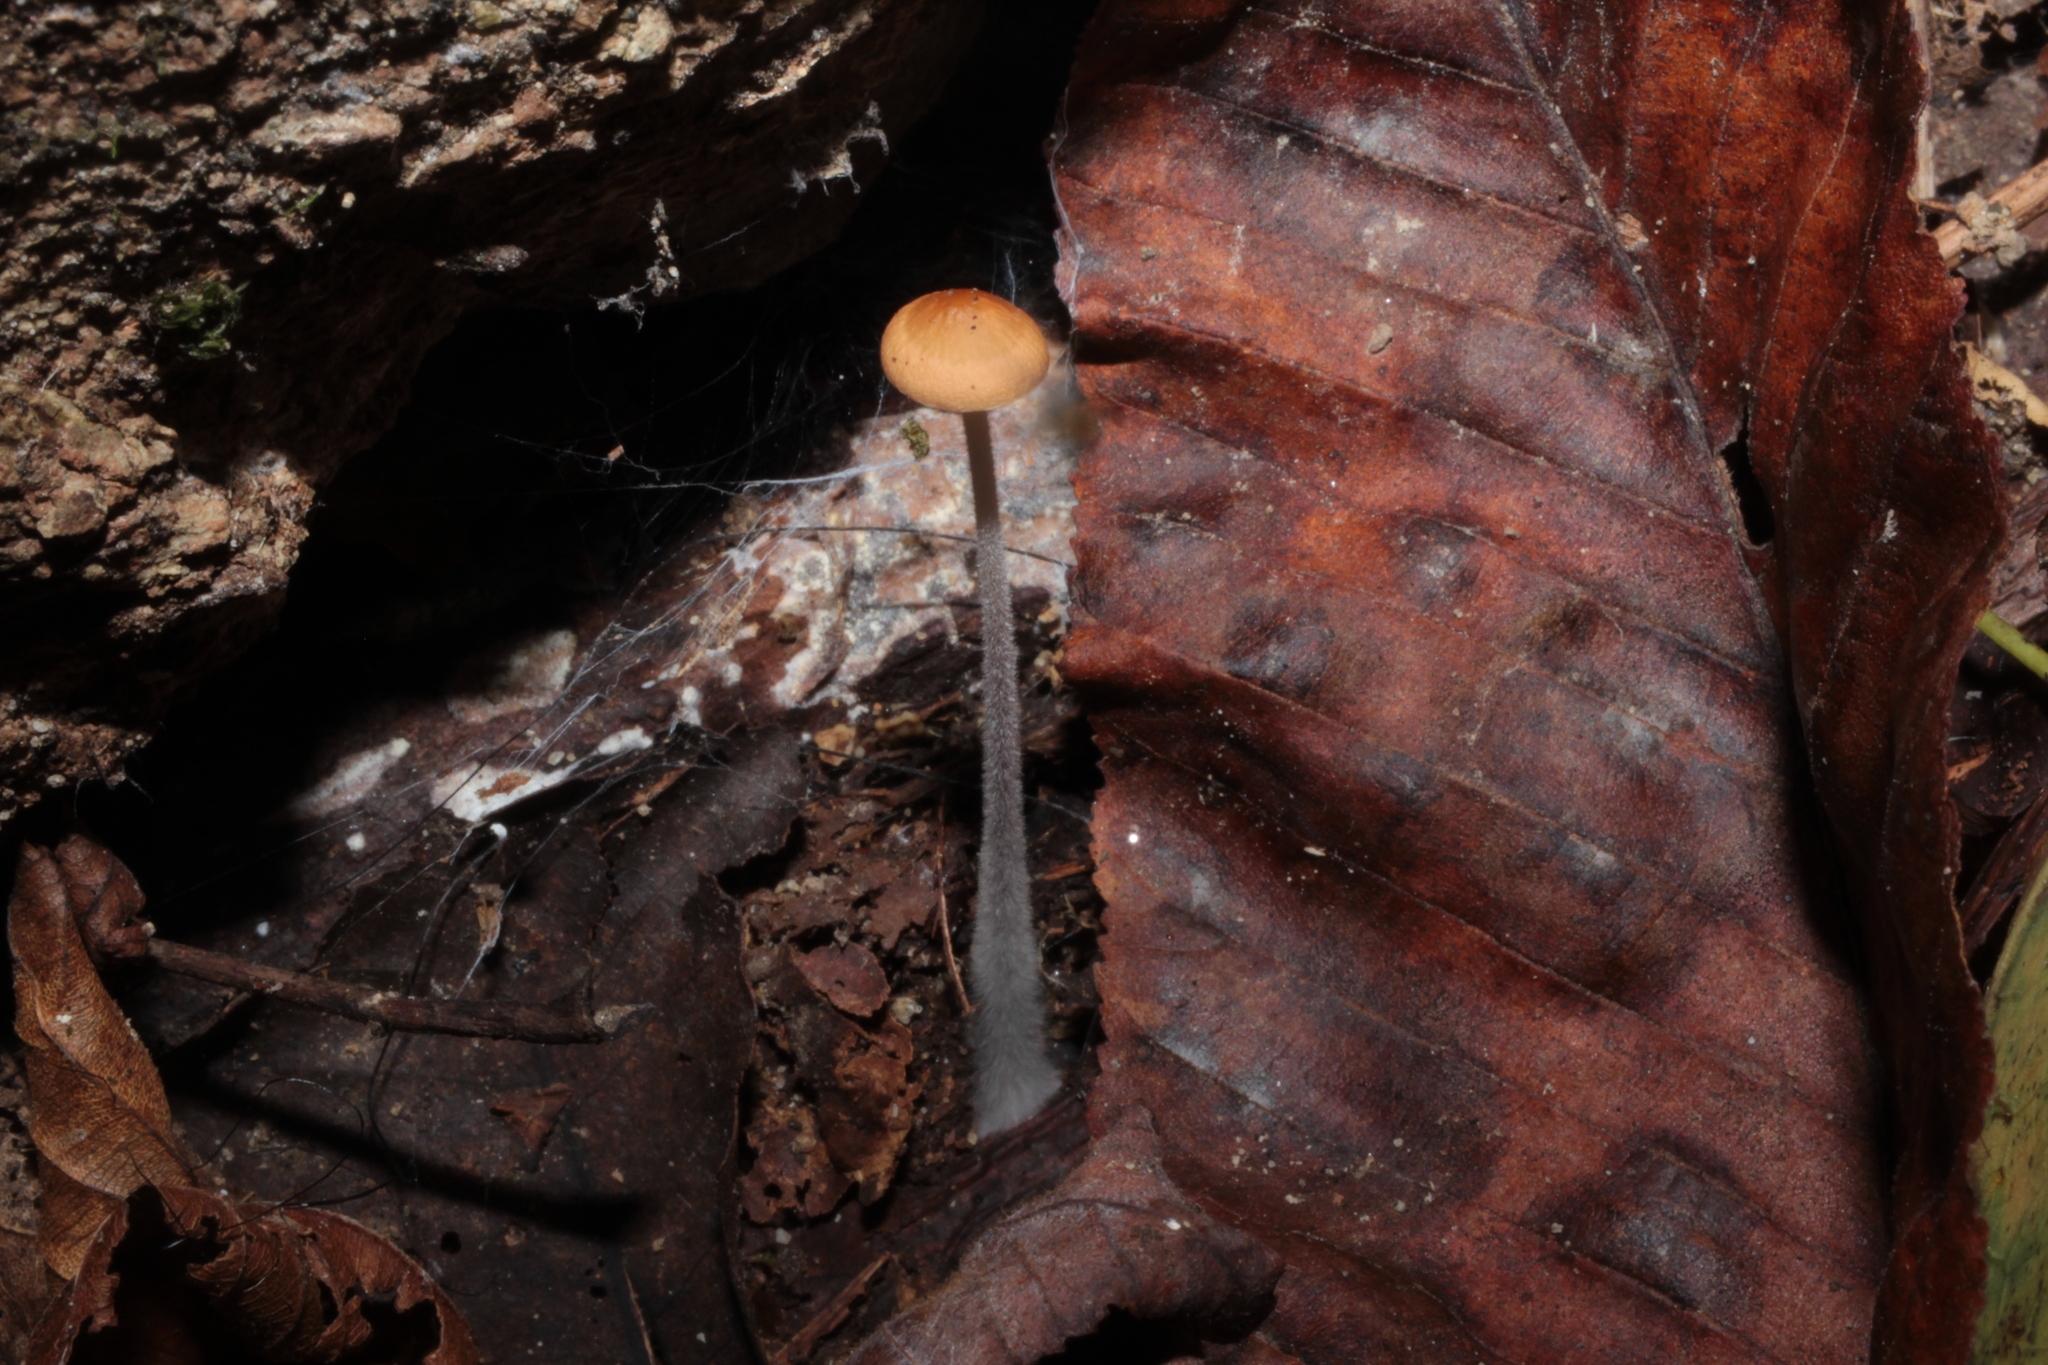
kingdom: Fungi
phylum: Basidiomycota
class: Agaricomycetes
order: Agaricales
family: Physalacriaceae
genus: Rhizomarasmius
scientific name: Rhizomarasmius pyrrhocephalus
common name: Hairy long stem marasmius
